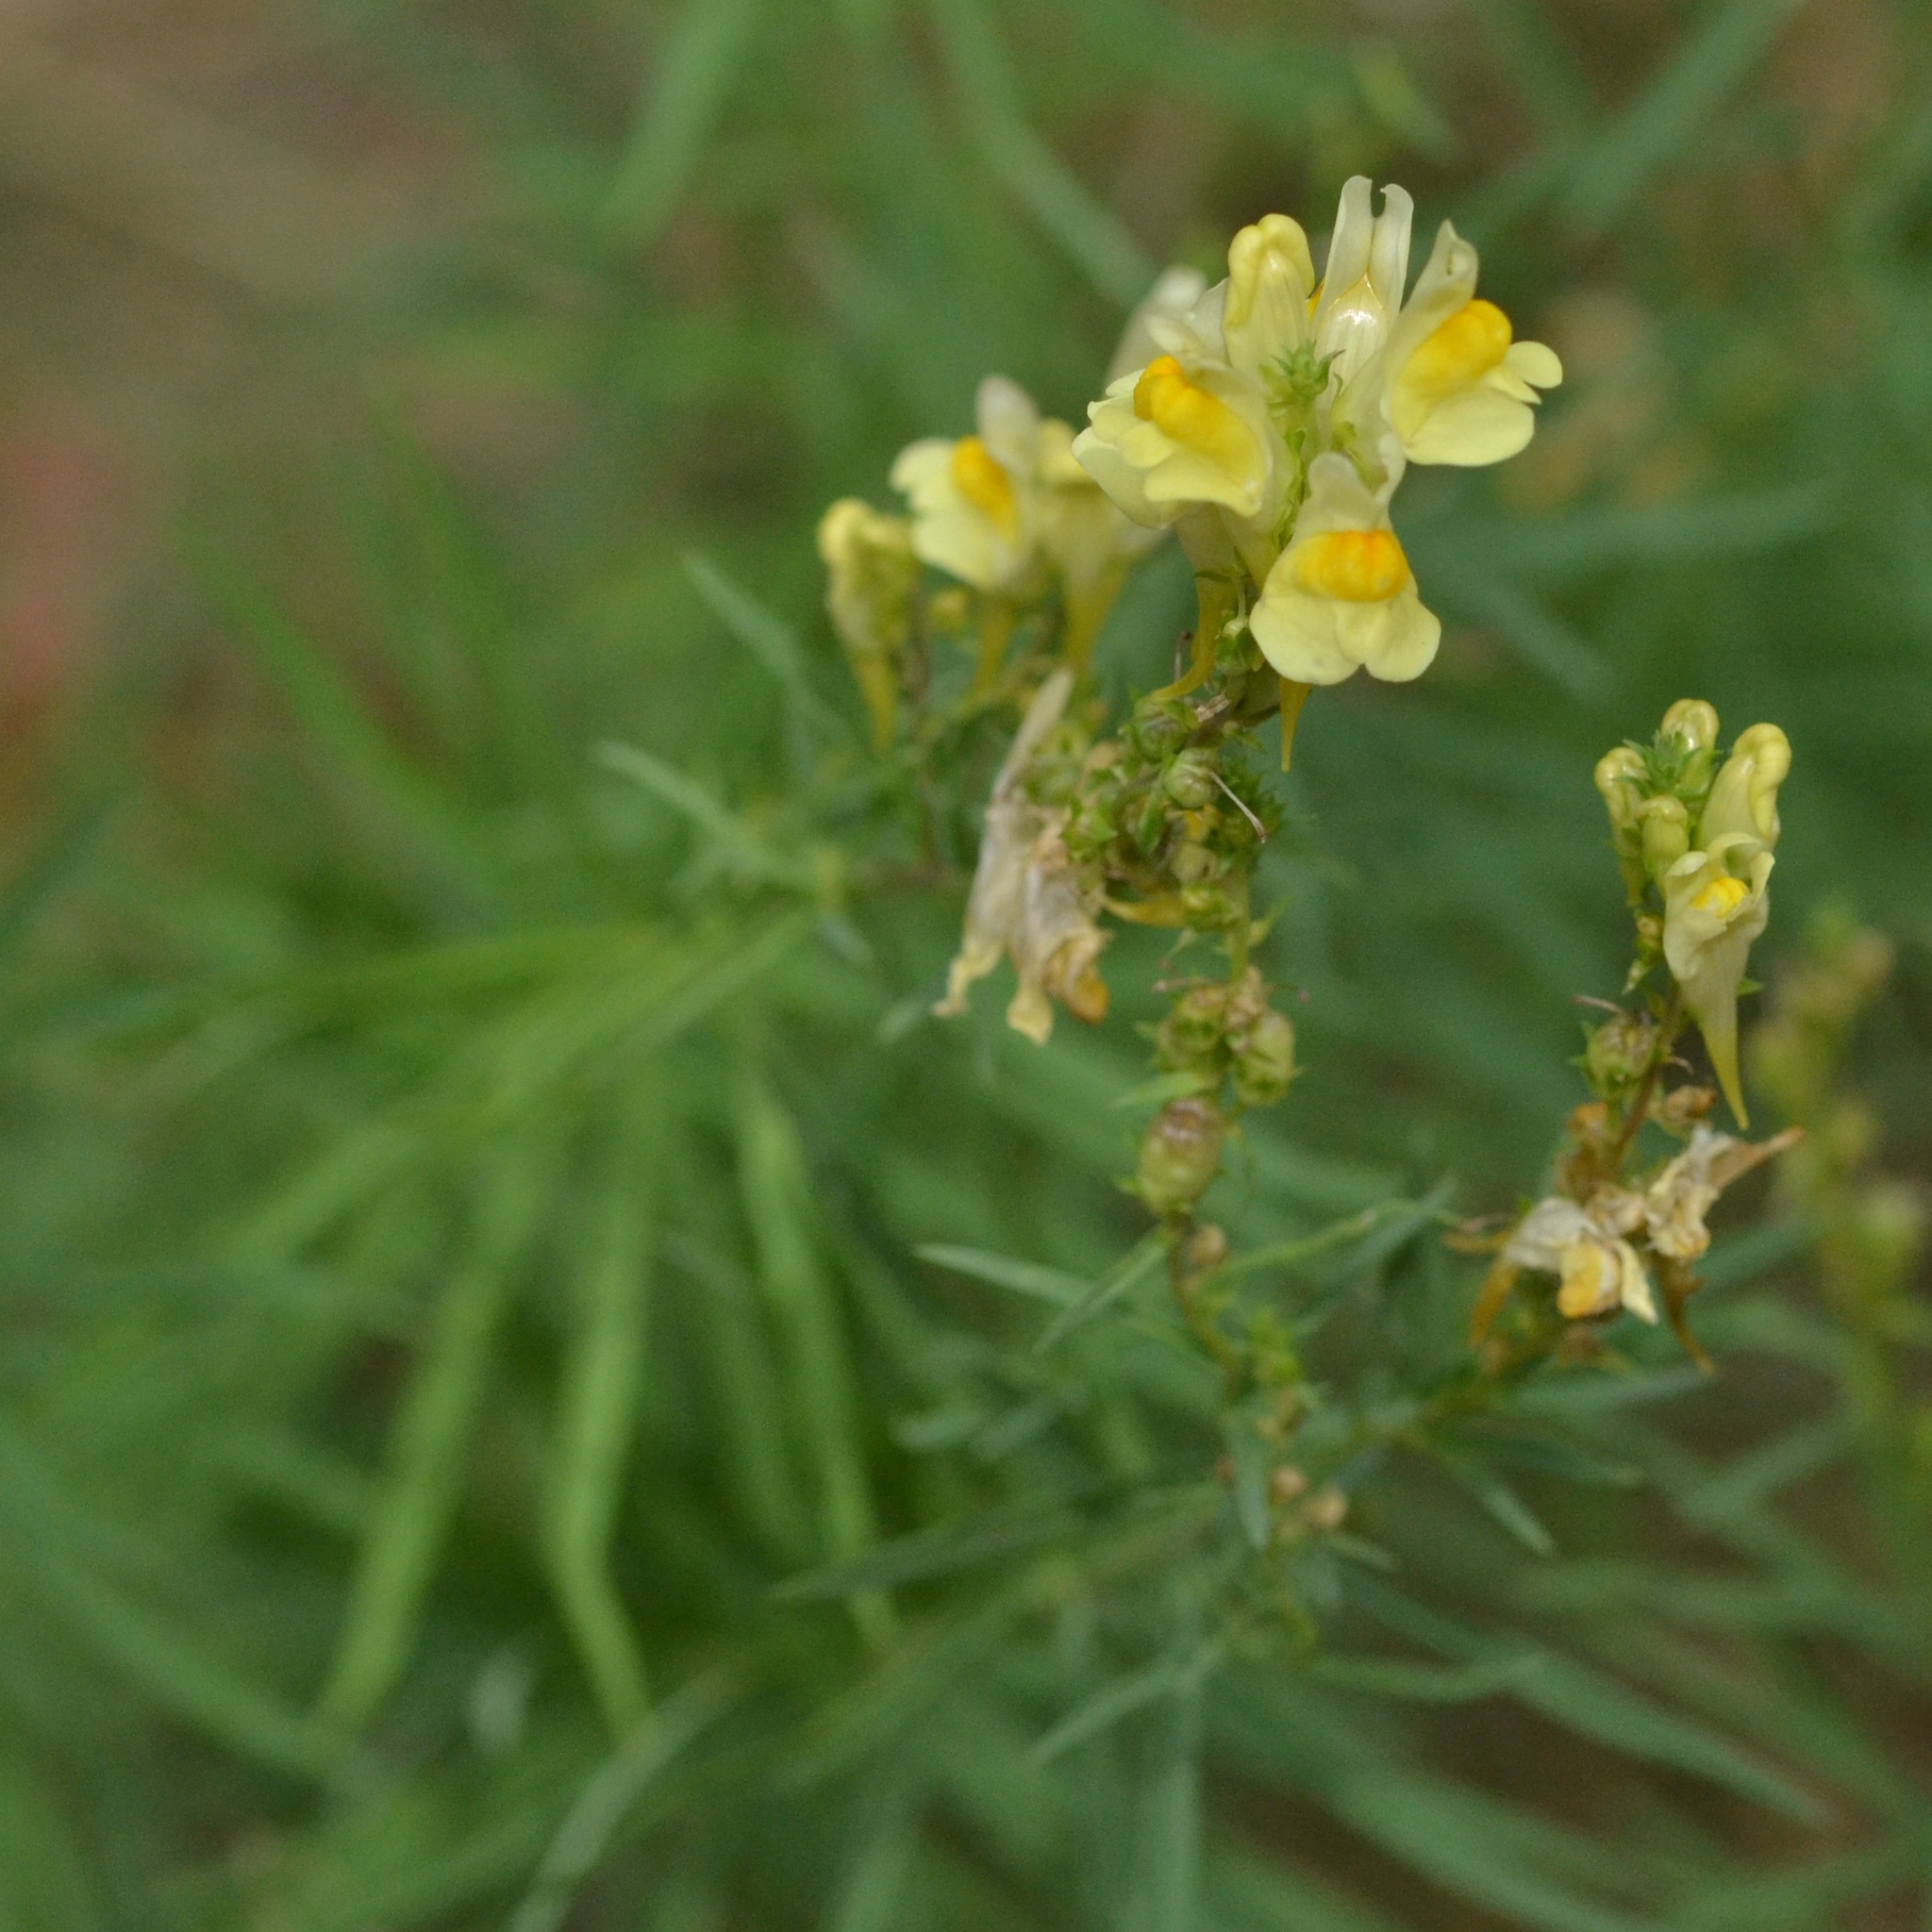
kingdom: Plantae
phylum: Tracheophyta
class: Magnoliopsida
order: Lamiales
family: Plantaginaceae
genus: Linaria
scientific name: Linaria vulgaris
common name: Butter and eggs
